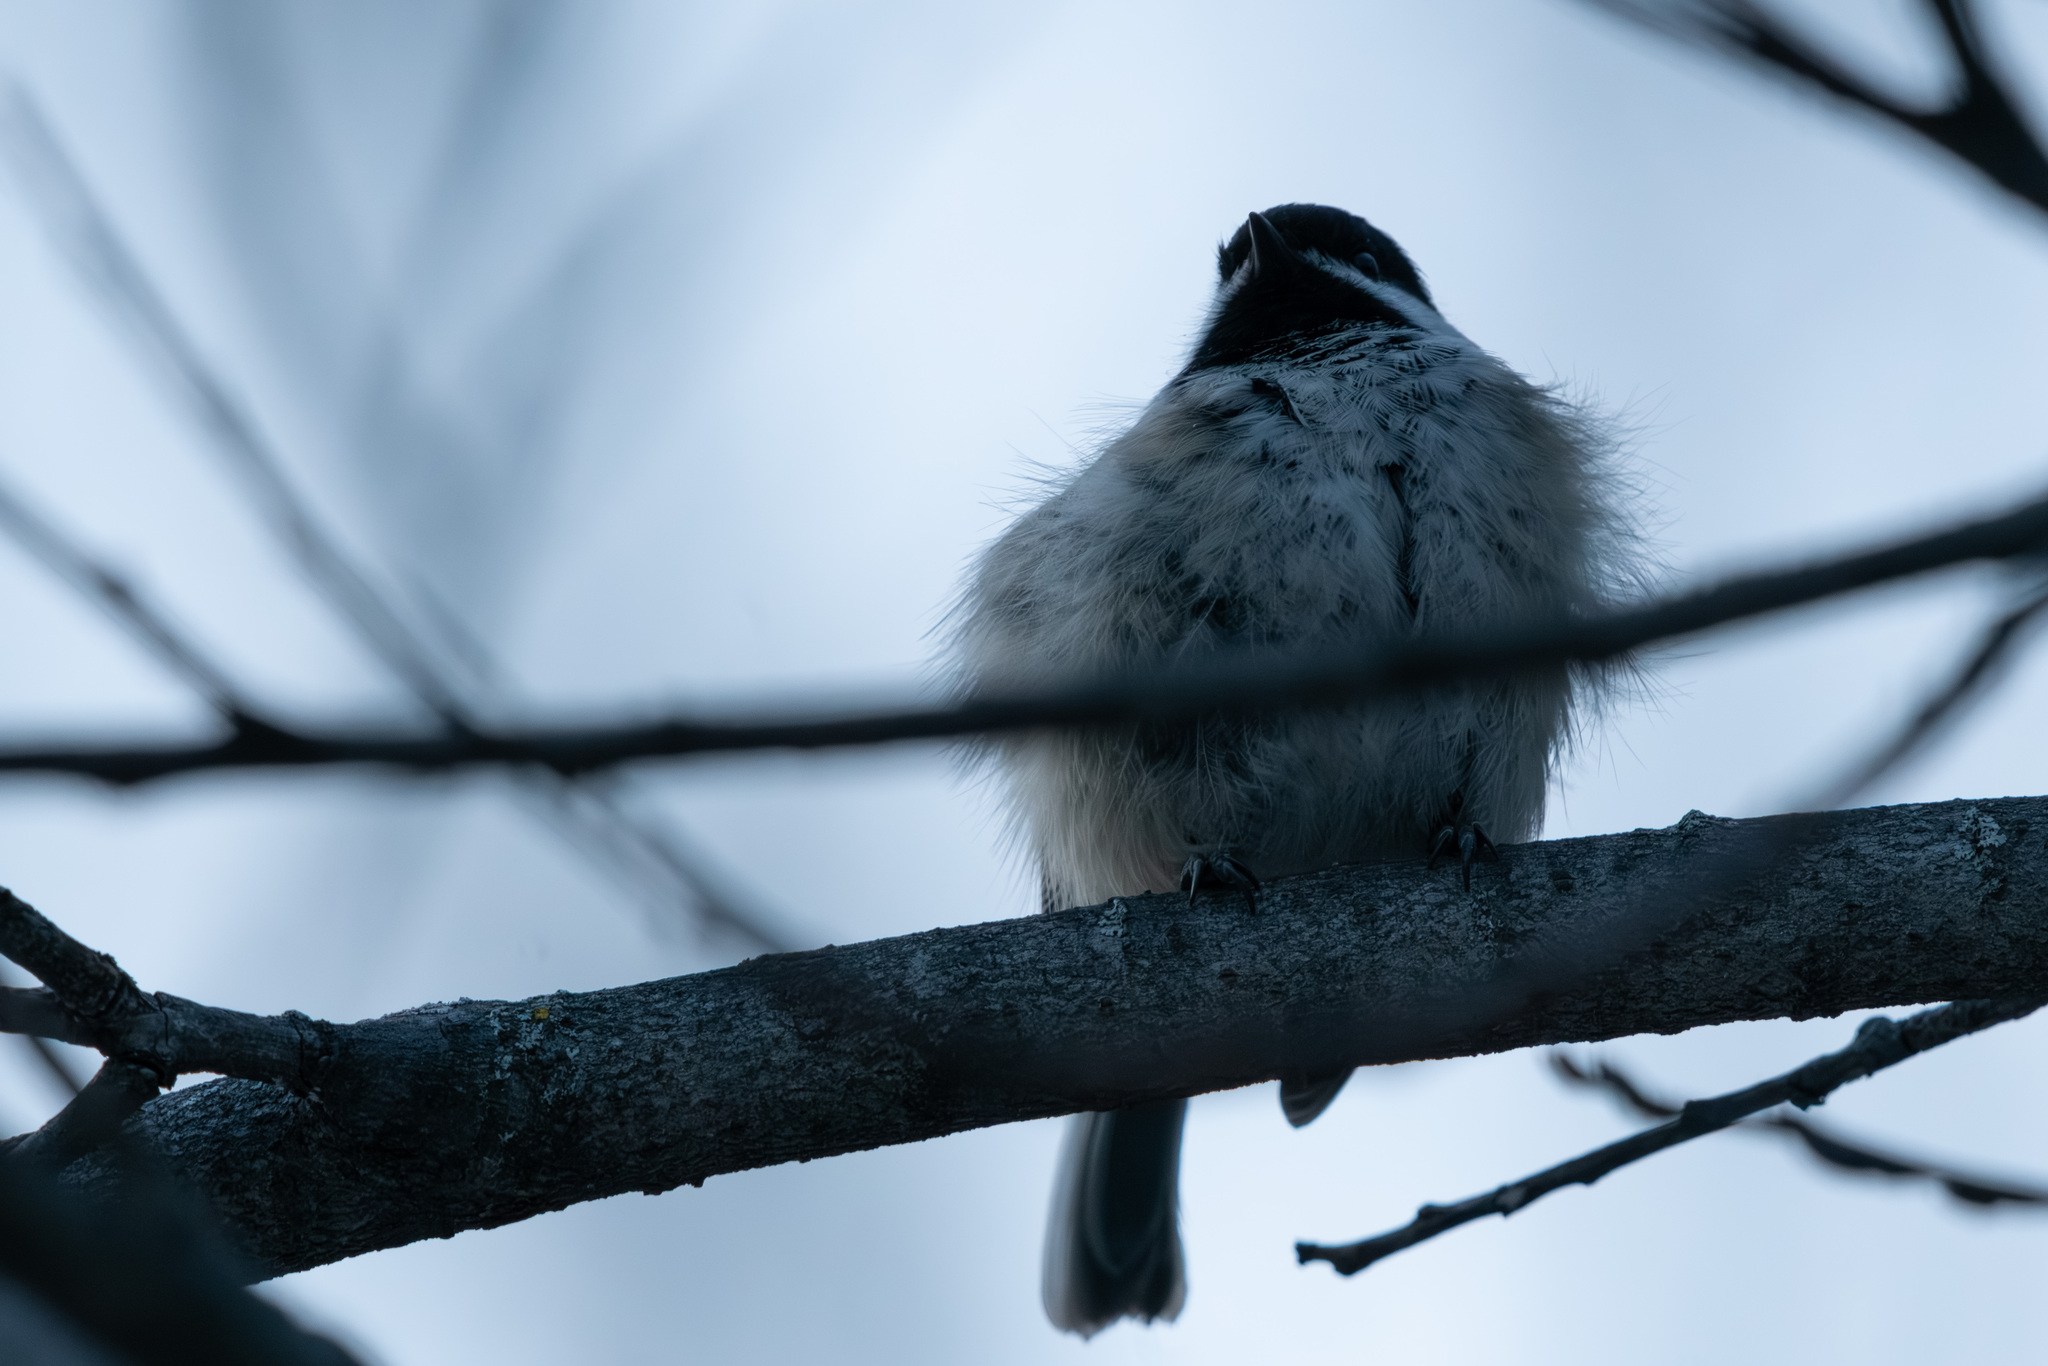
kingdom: Animalia
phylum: Chordata
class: Aves
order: Passeriformes
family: Paridae
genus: Poecile
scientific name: Poecile atricapillus
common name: Black-capped chickadee
